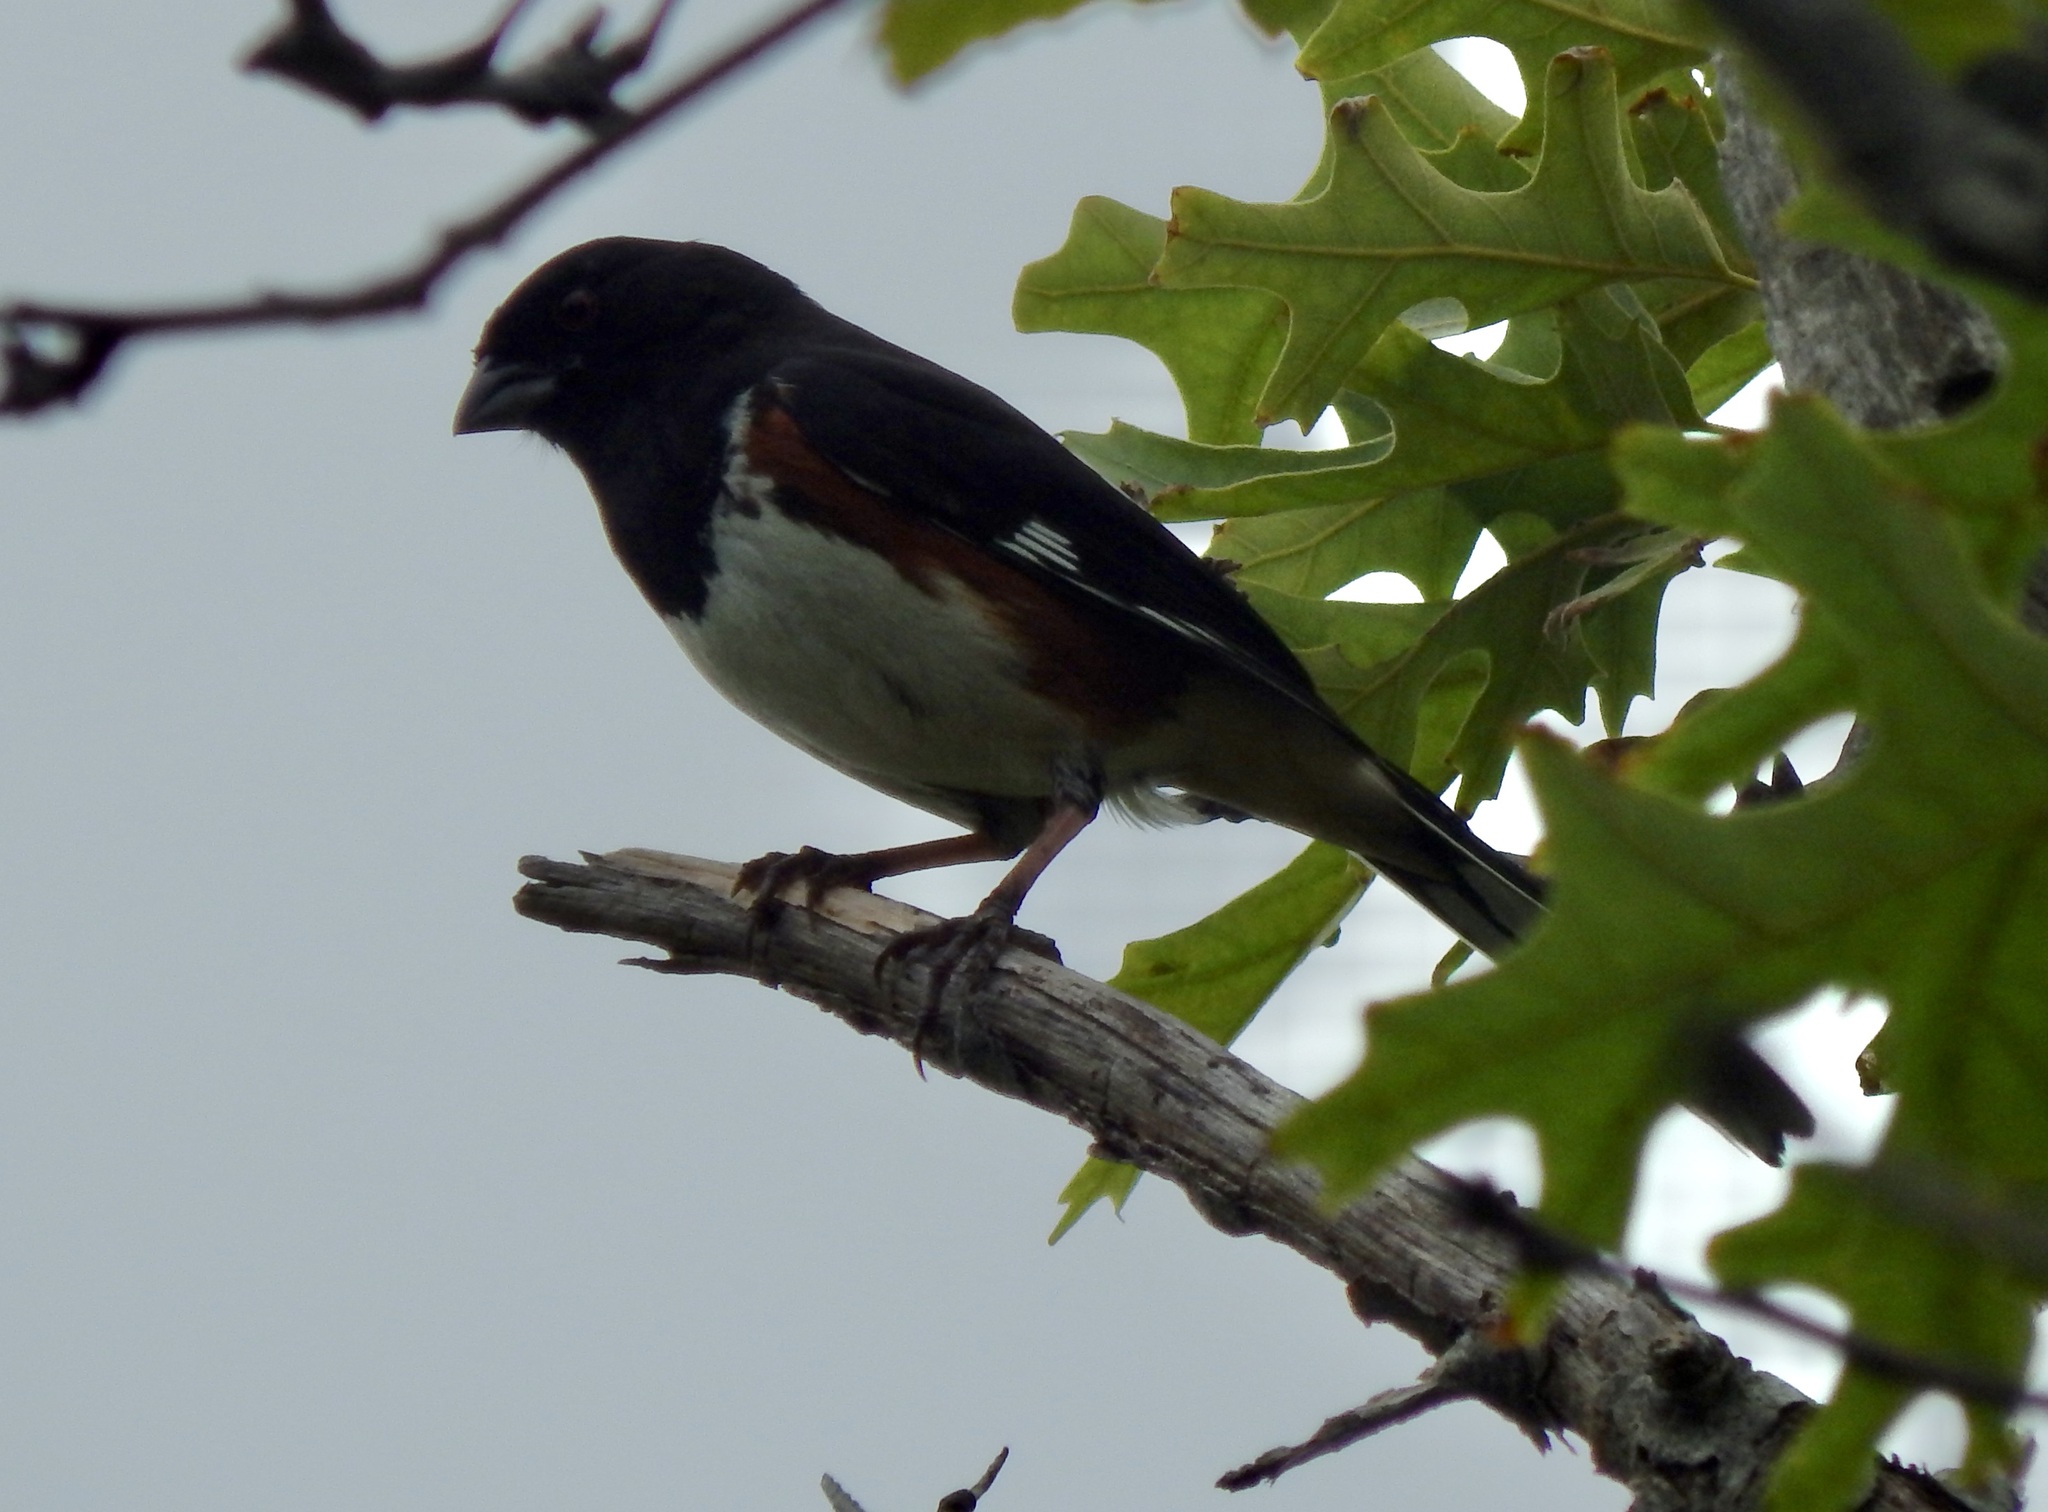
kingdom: Animalia
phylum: Chordata
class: Aves
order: Passeriformes
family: Passerellidae
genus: Pipilo
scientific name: Pipilo erythrophthalmus
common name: Eastern towhee
